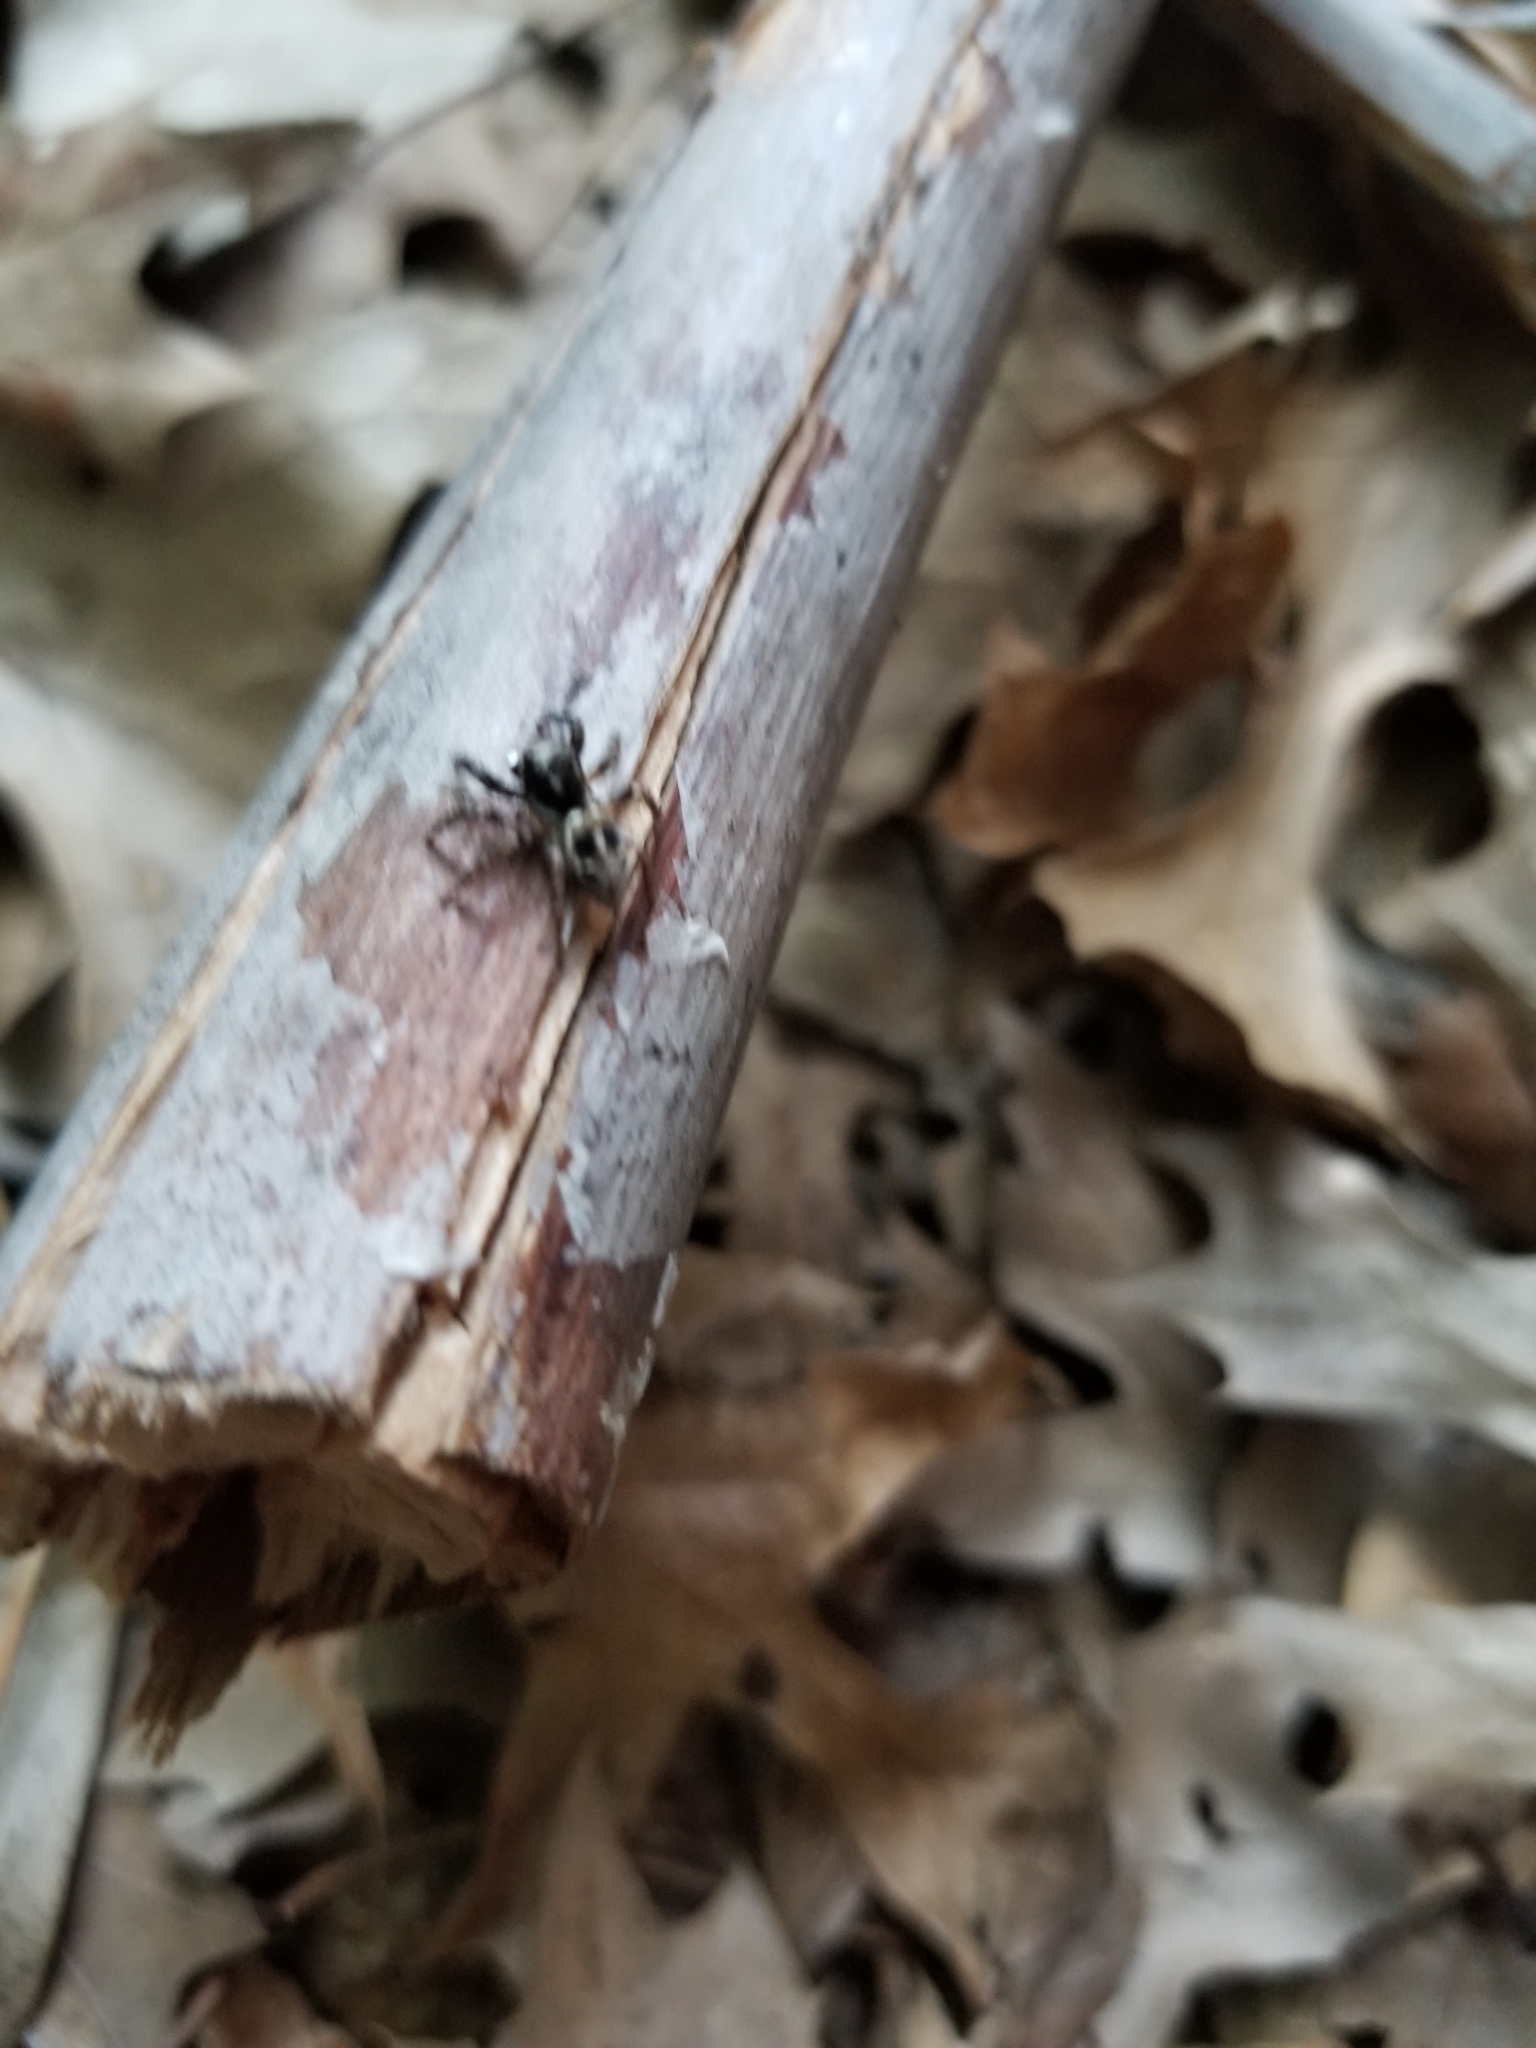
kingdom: Animalia
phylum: Arthropoda
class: Arachnida
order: Araneae
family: Salticidae
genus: Anasaitis
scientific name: Anasaitis canosa
